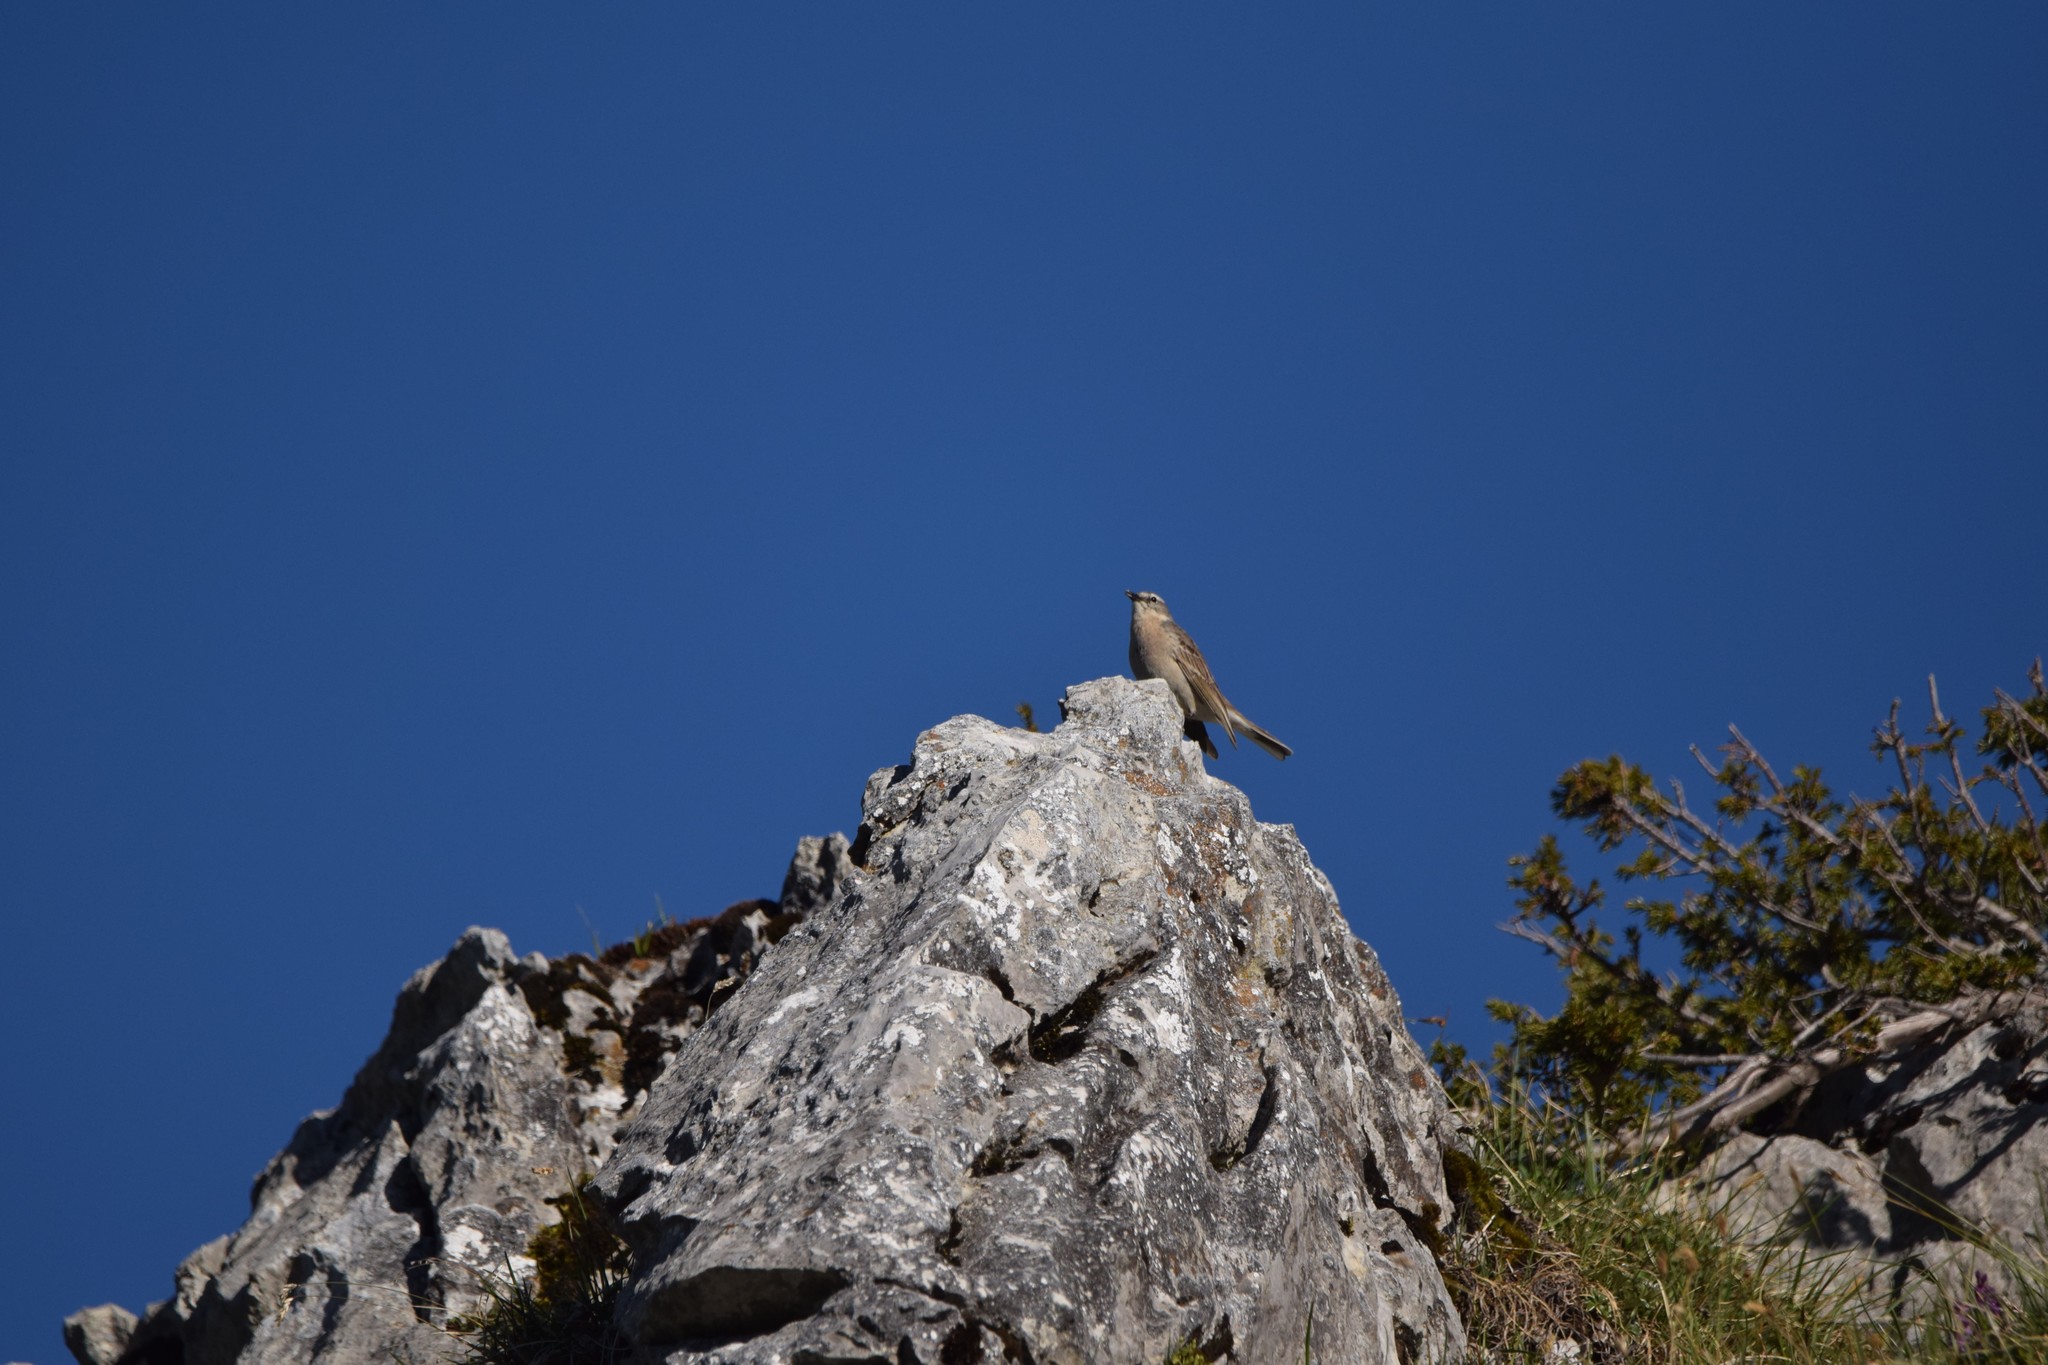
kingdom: Animalia
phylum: Chordata
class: Aves
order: Passeriformes
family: Motacillidae
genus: Anthus
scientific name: Anthus spinoletta
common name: Water pipit
